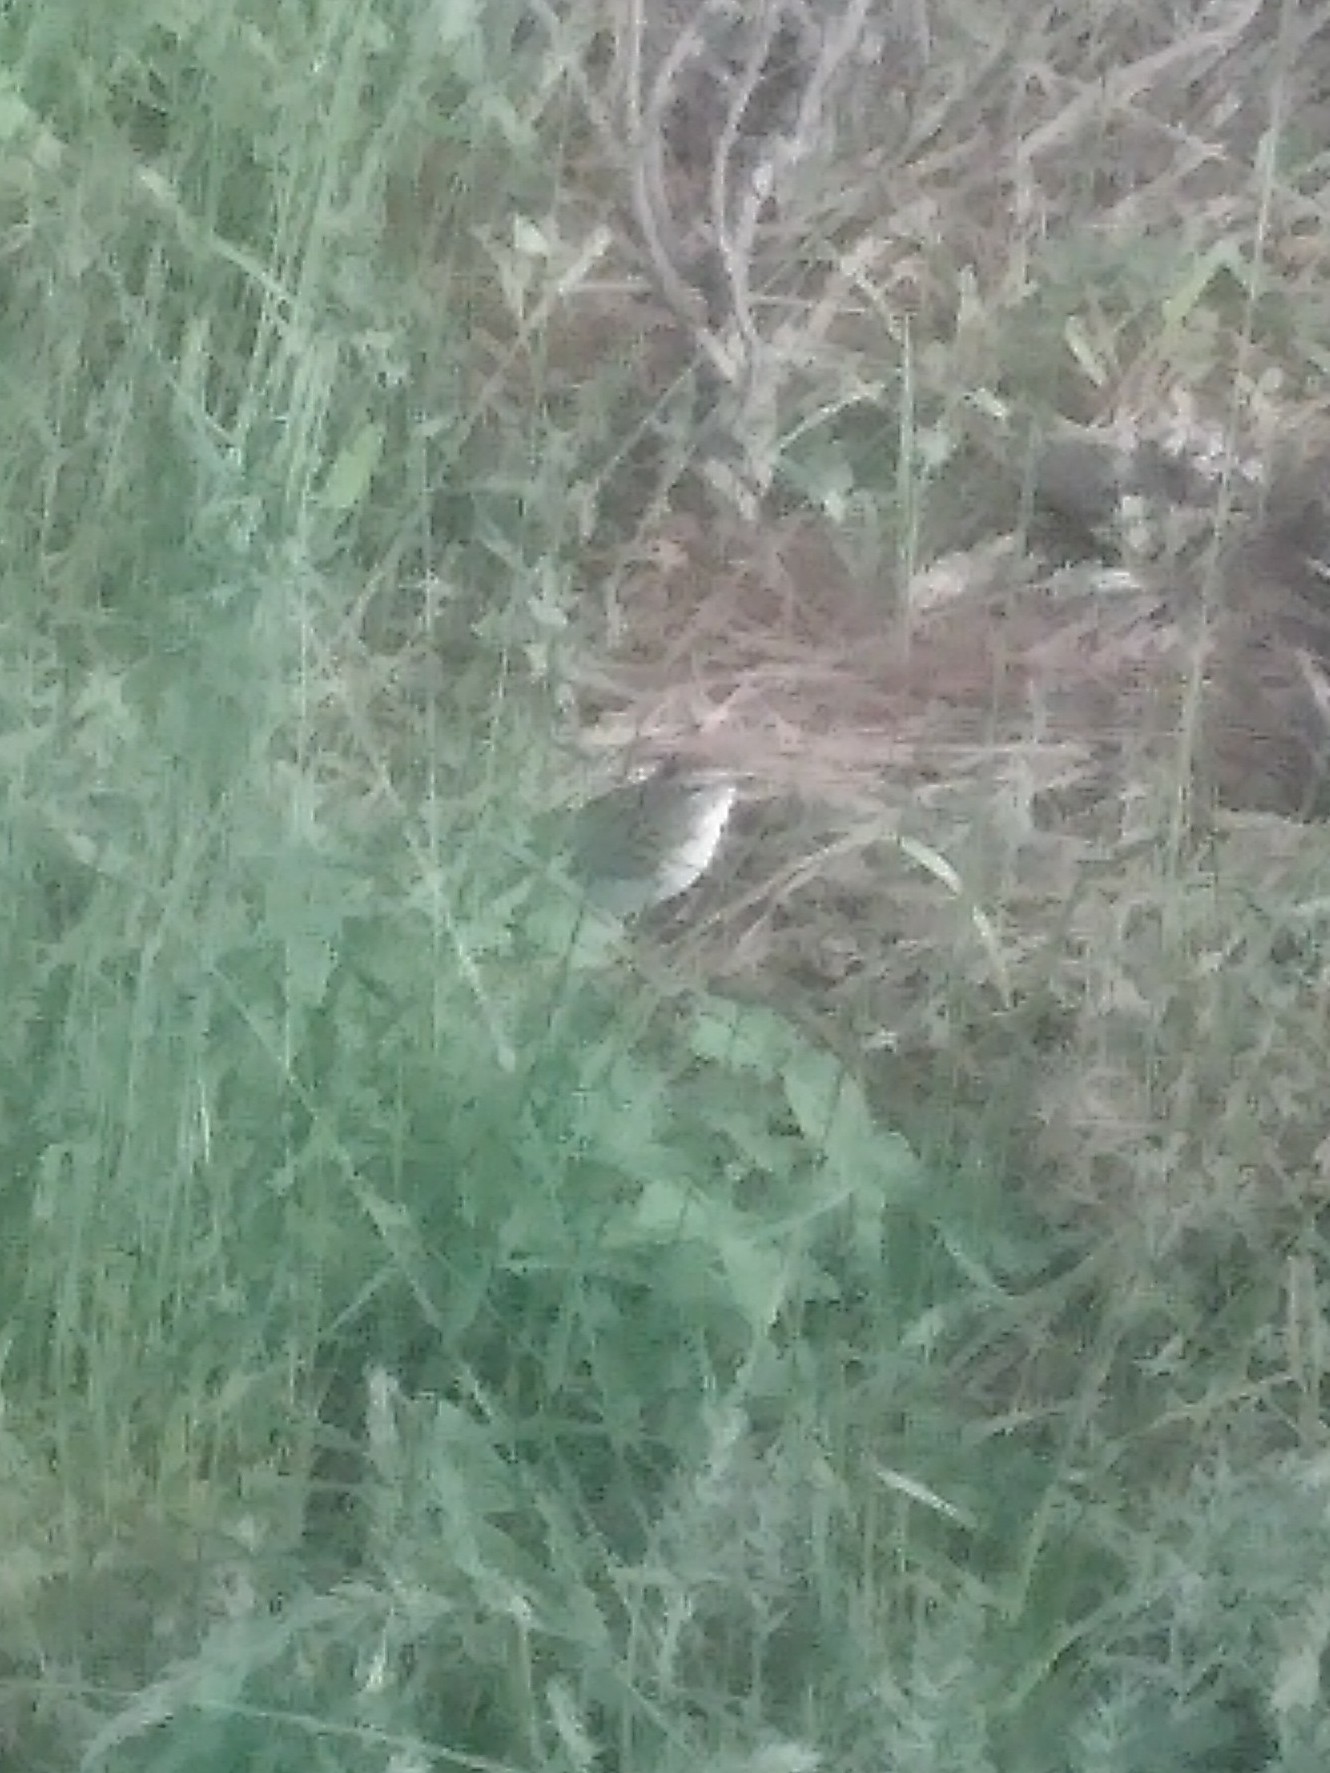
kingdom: Animalia
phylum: Chordata
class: Aves
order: Passeriformes
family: Passerellidae
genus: Spizella
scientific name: Spizella passerina
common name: Chipping sparrow
